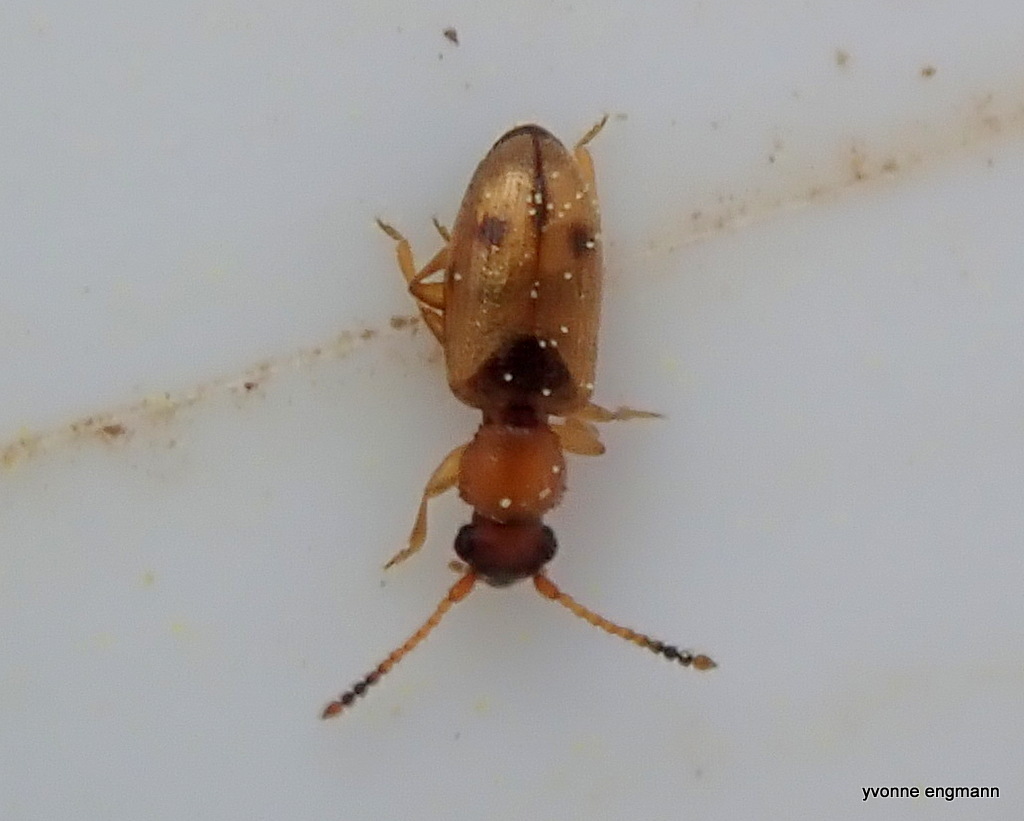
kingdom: Animalia
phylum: Arthropoda
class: Insecta
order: Coleoptera
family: Silvanidae
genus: Psammoecus
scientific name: Psammoecus bipunctatus
